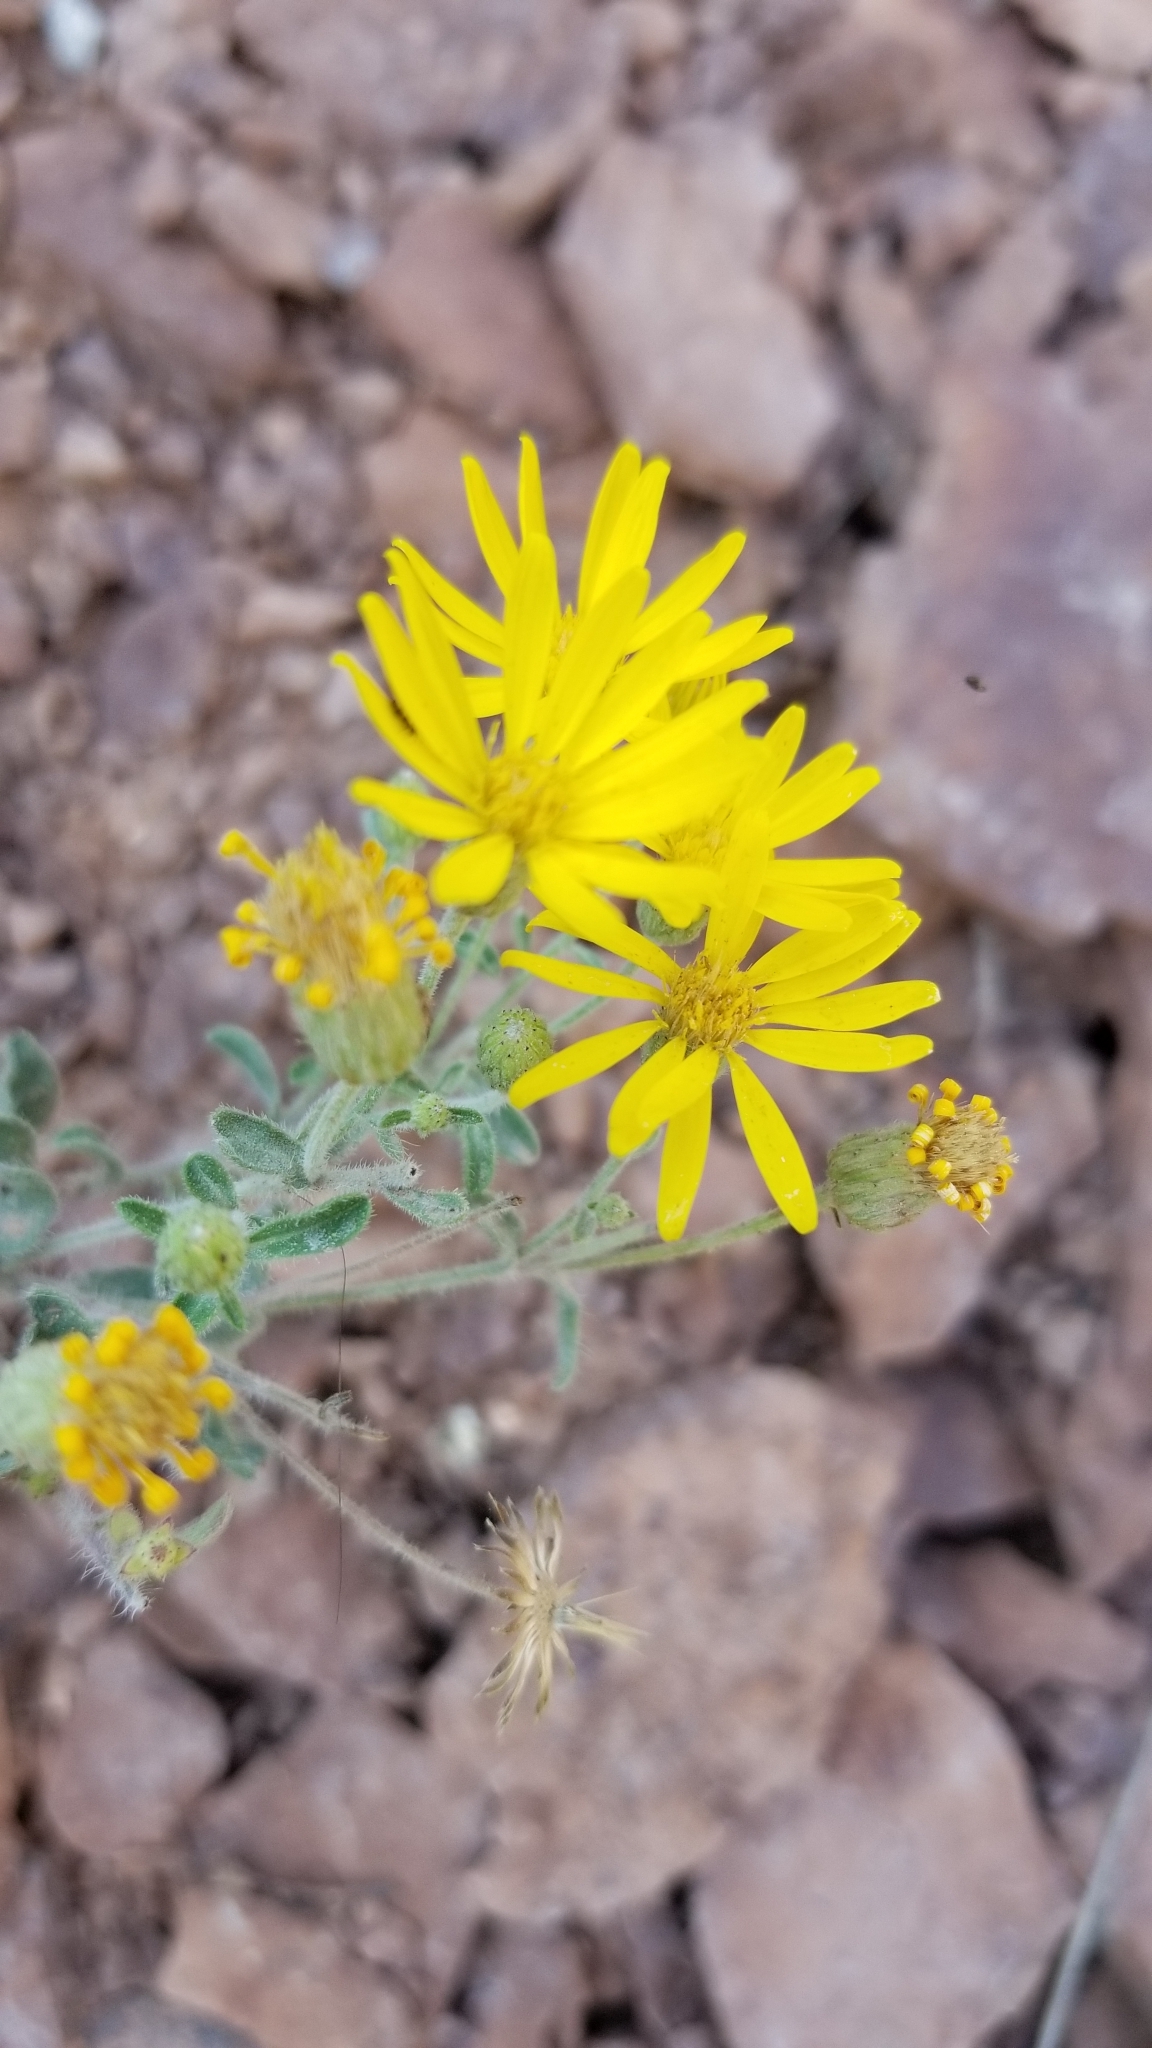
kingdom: Plantae
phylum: Tracheophyta
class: Magnoliopsida
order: Asterales
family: Asteraceae
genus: Heterotheca
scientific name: Heterotheca hirsutissima
